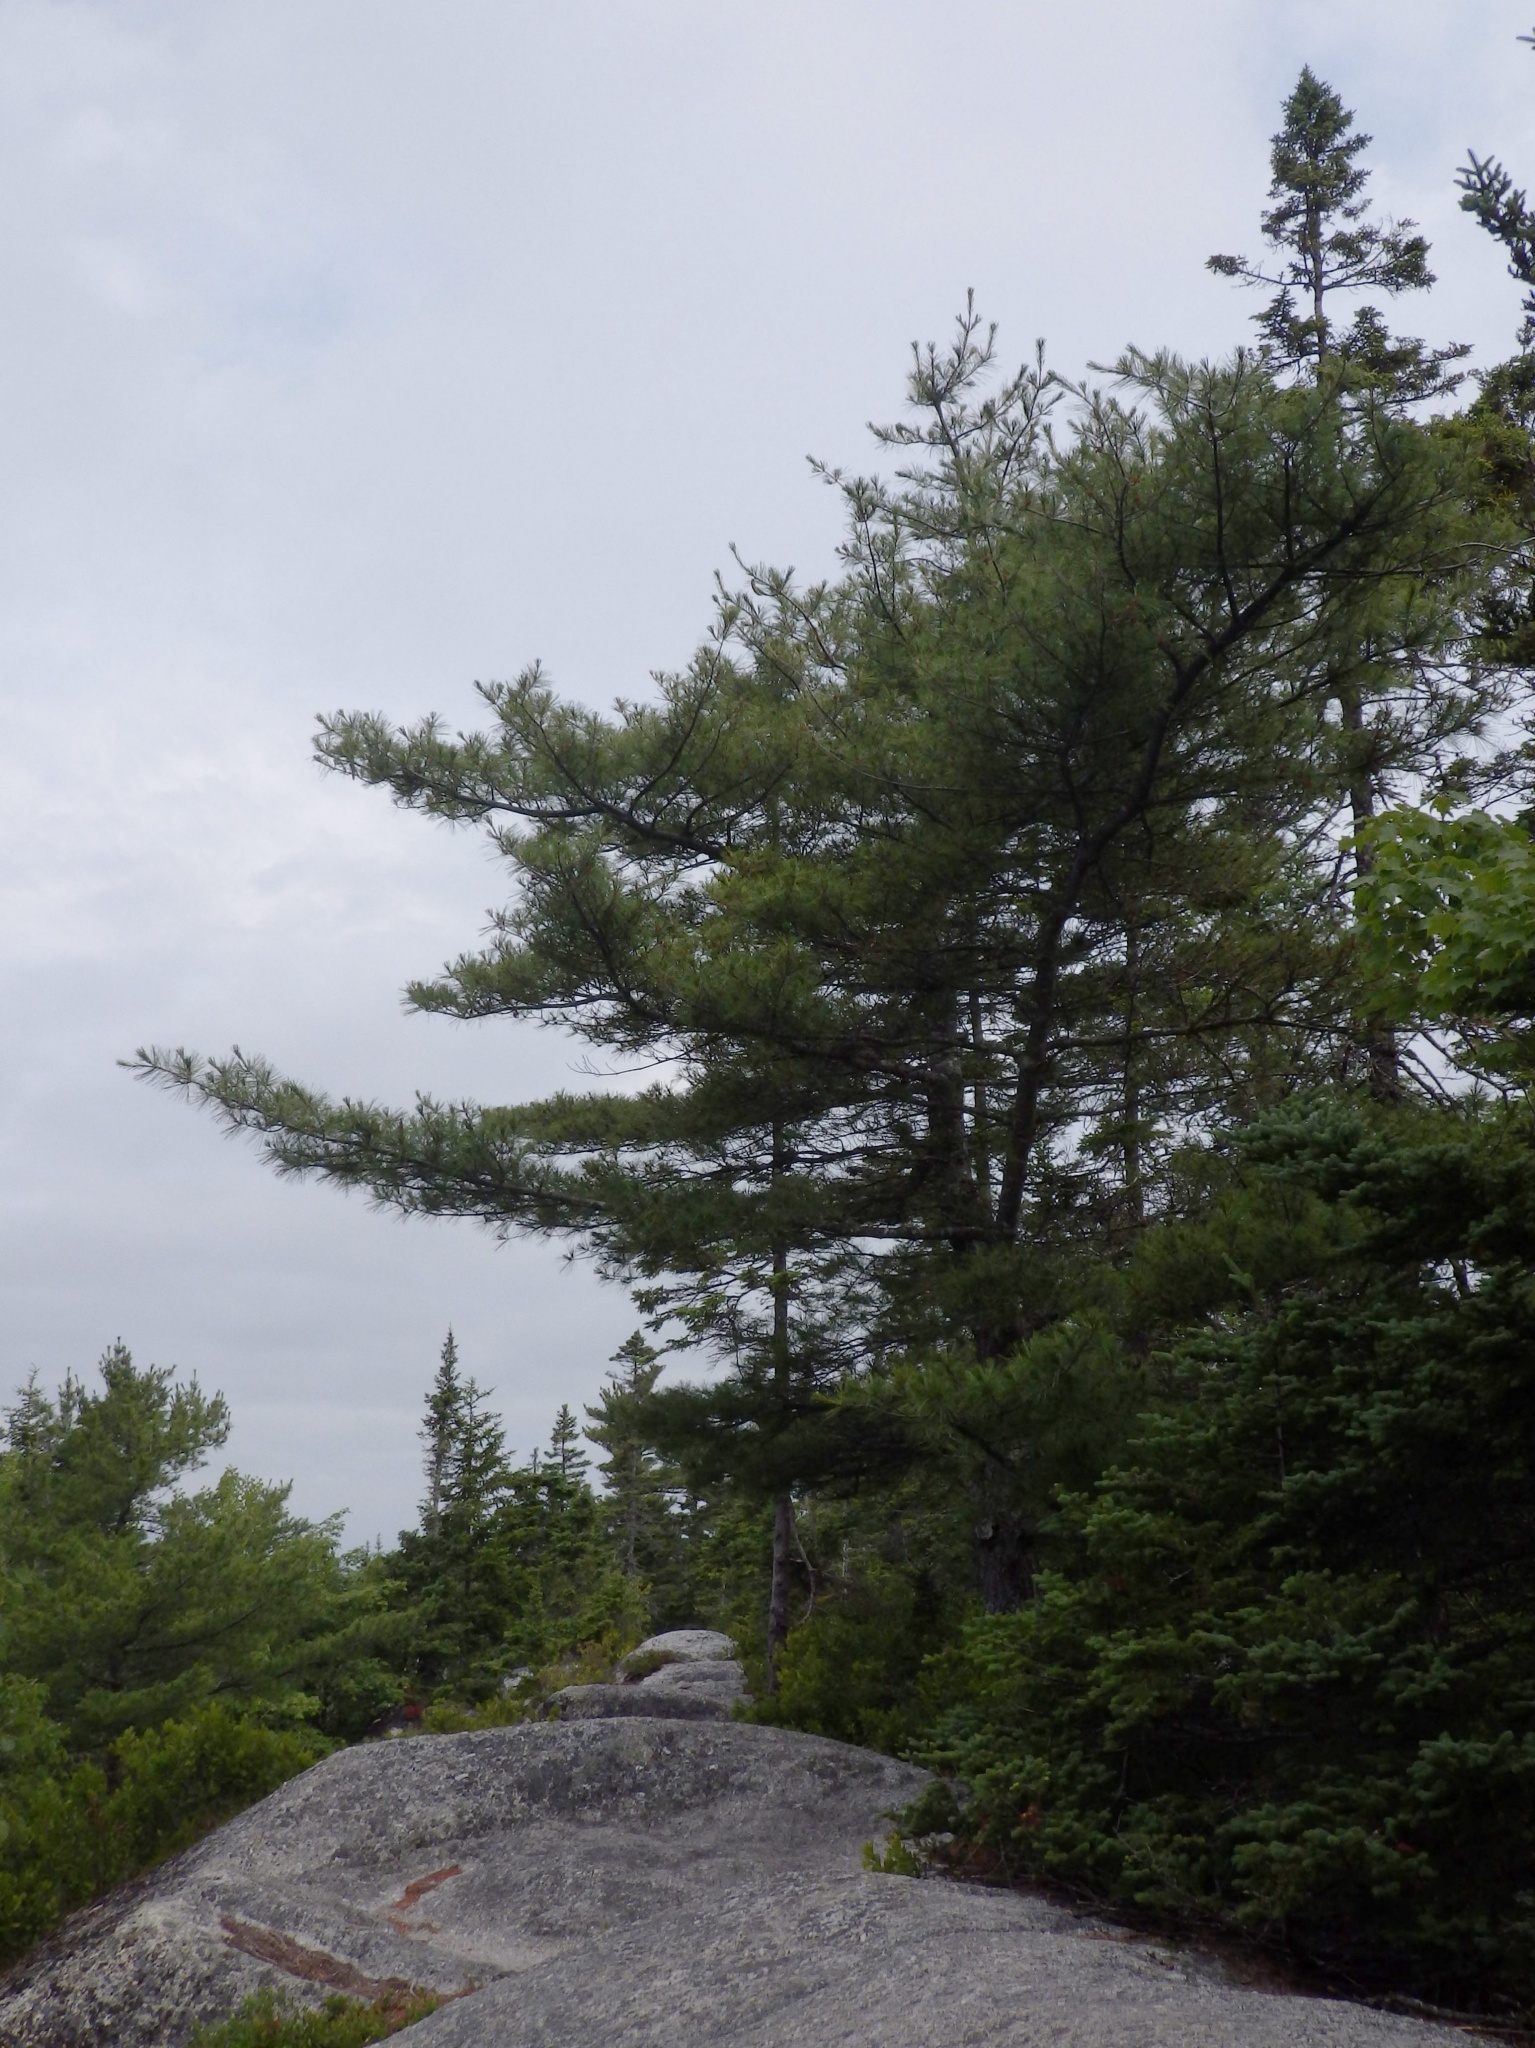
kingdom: Plantae
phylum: Tracheophyta
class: Pinopsida
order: Pinales
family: Pinaceae
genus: Pinus
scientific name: Pinus strobus
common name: Weymouth pine
